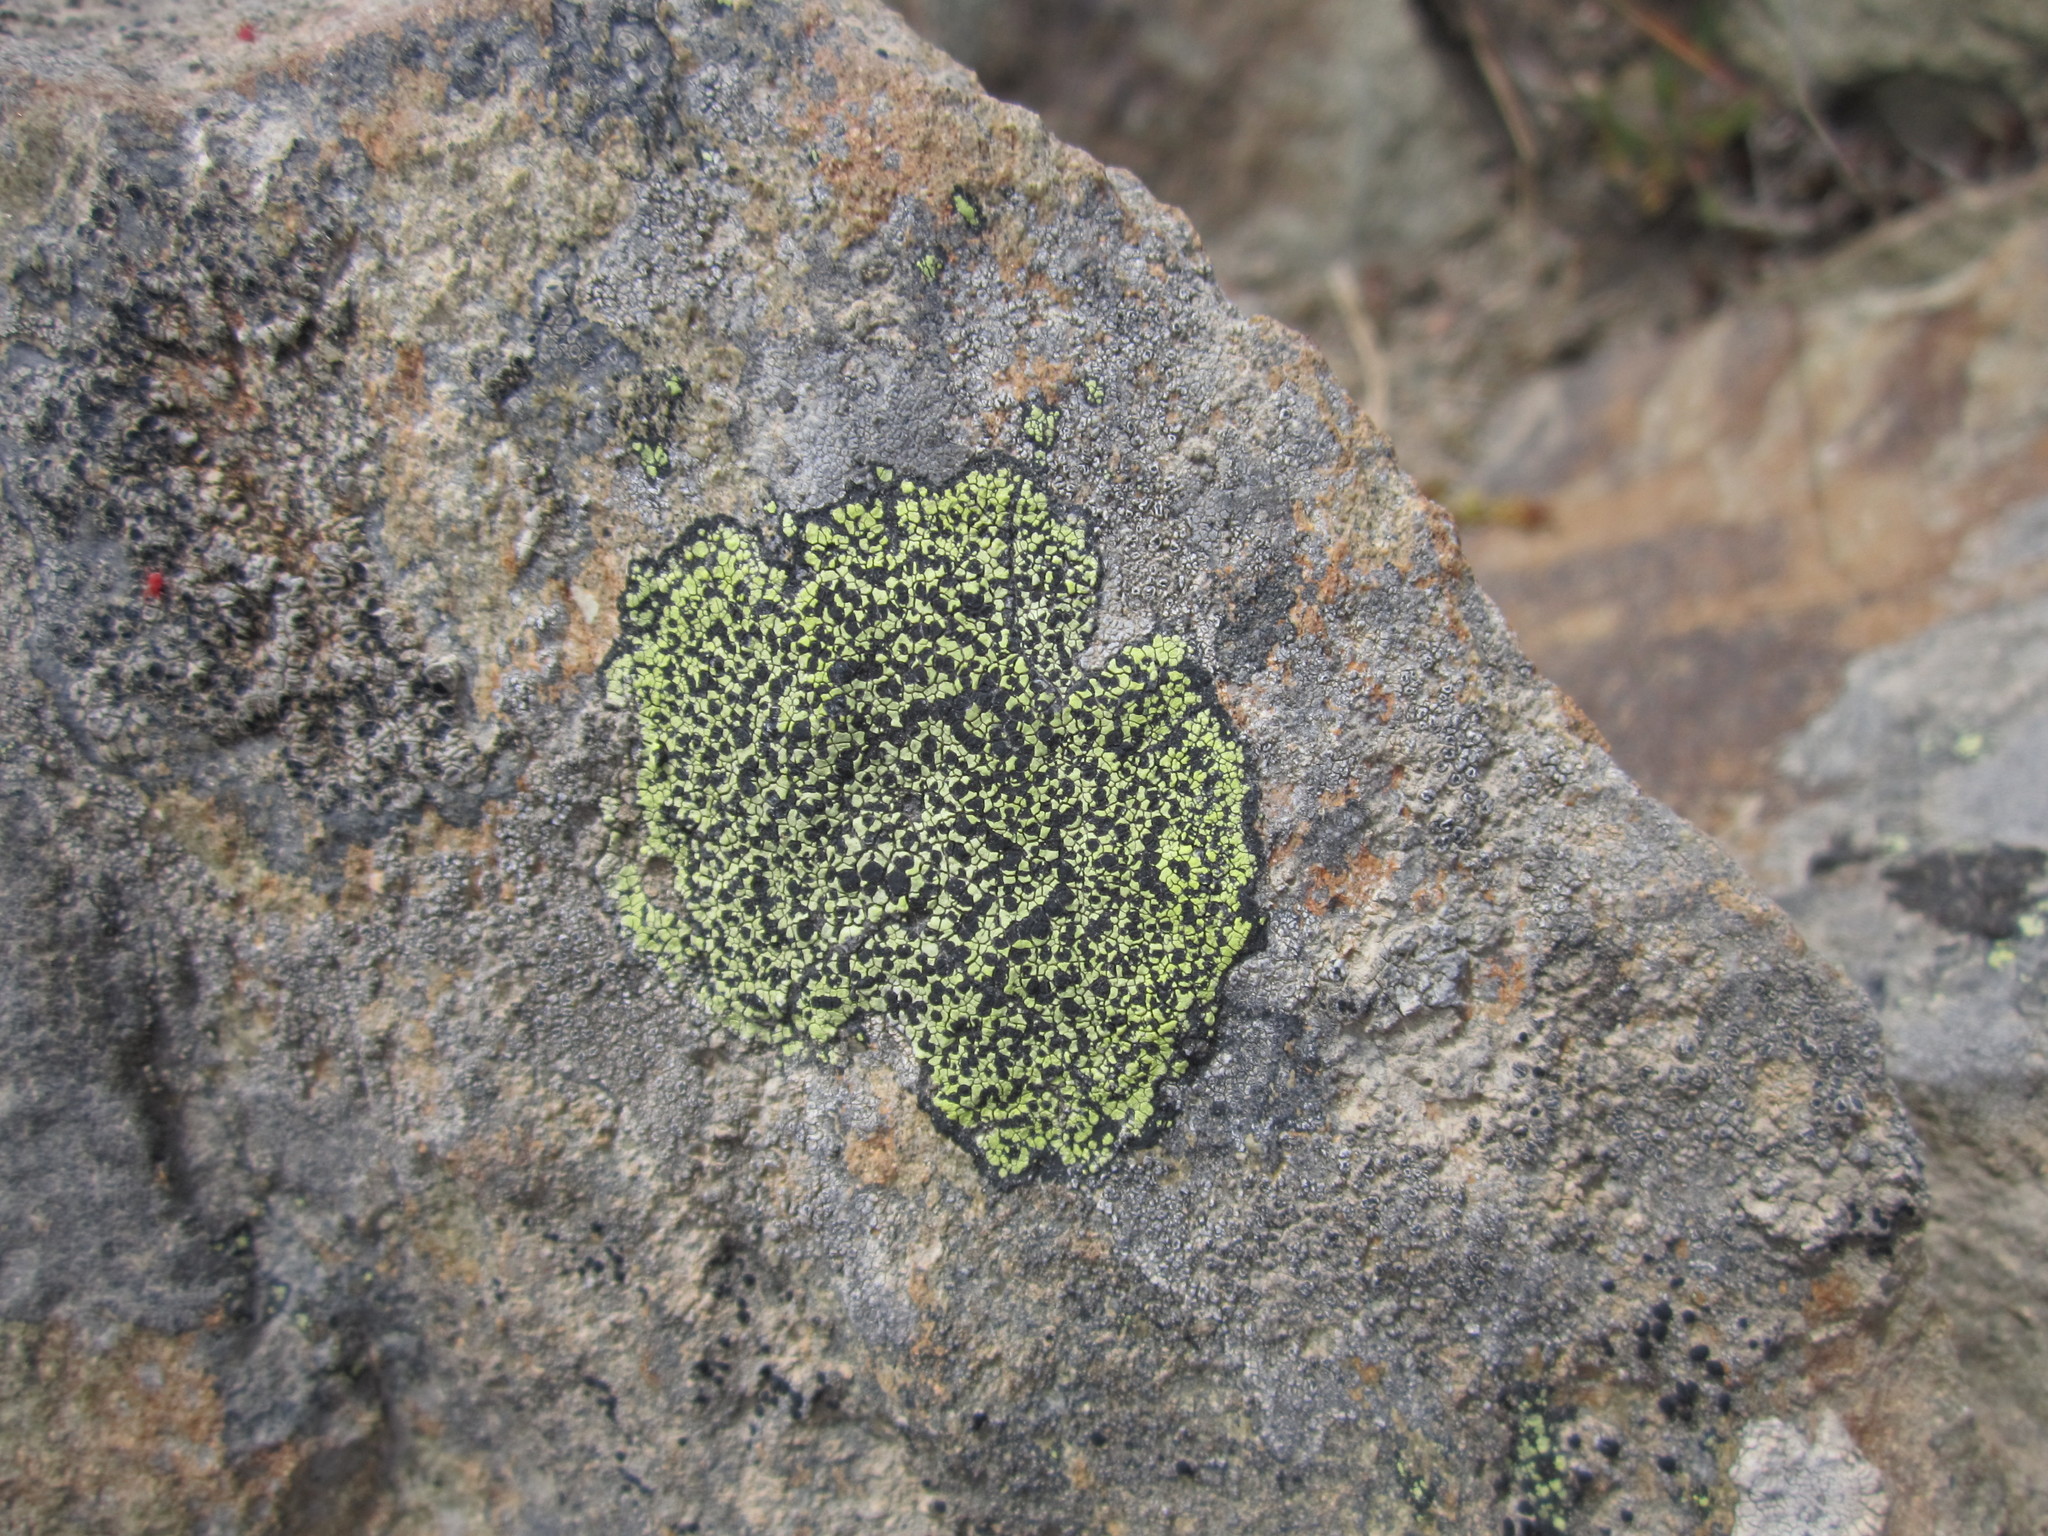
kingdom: Fungi
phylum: Ascomycota
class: Lecanoromycetes
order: Rhizocarpales
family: Rhizocarpaceae
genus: Rhizocarpon
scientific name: Rhizocarpon geographicum
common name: Yellow map lichen
